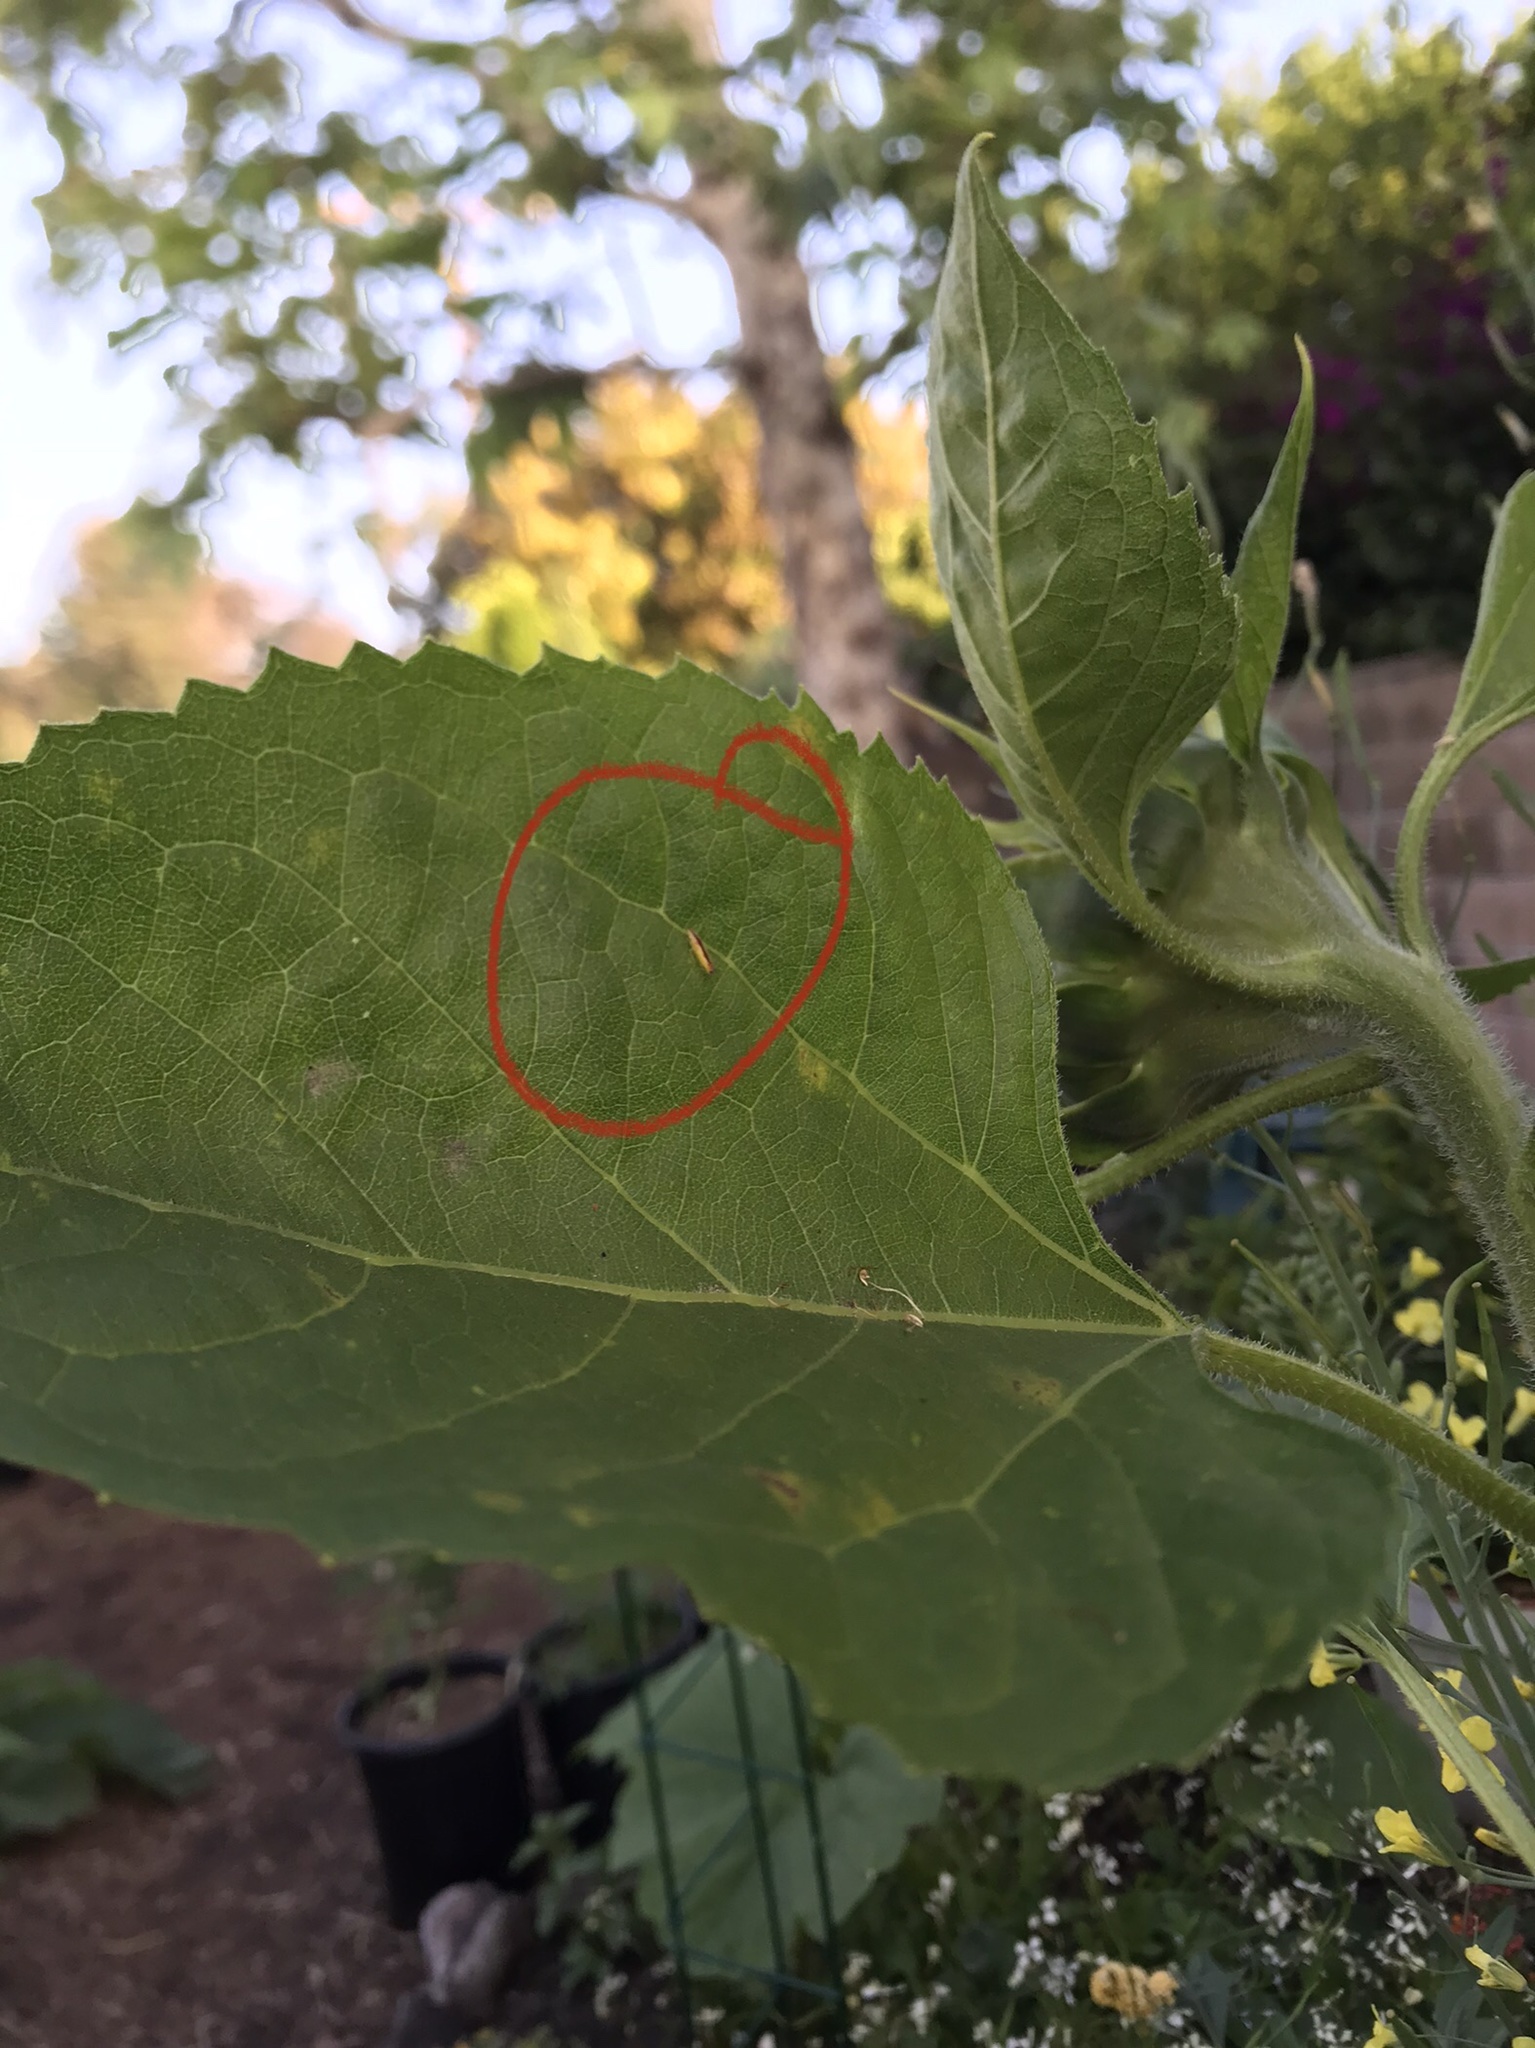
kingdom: Animalia
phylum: Arthropoda
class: Insecta
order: Hemiptera
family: Cicadellidae
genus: Sophonia
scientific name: Sophonia orientalis
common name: Two-spotted leafhopper
